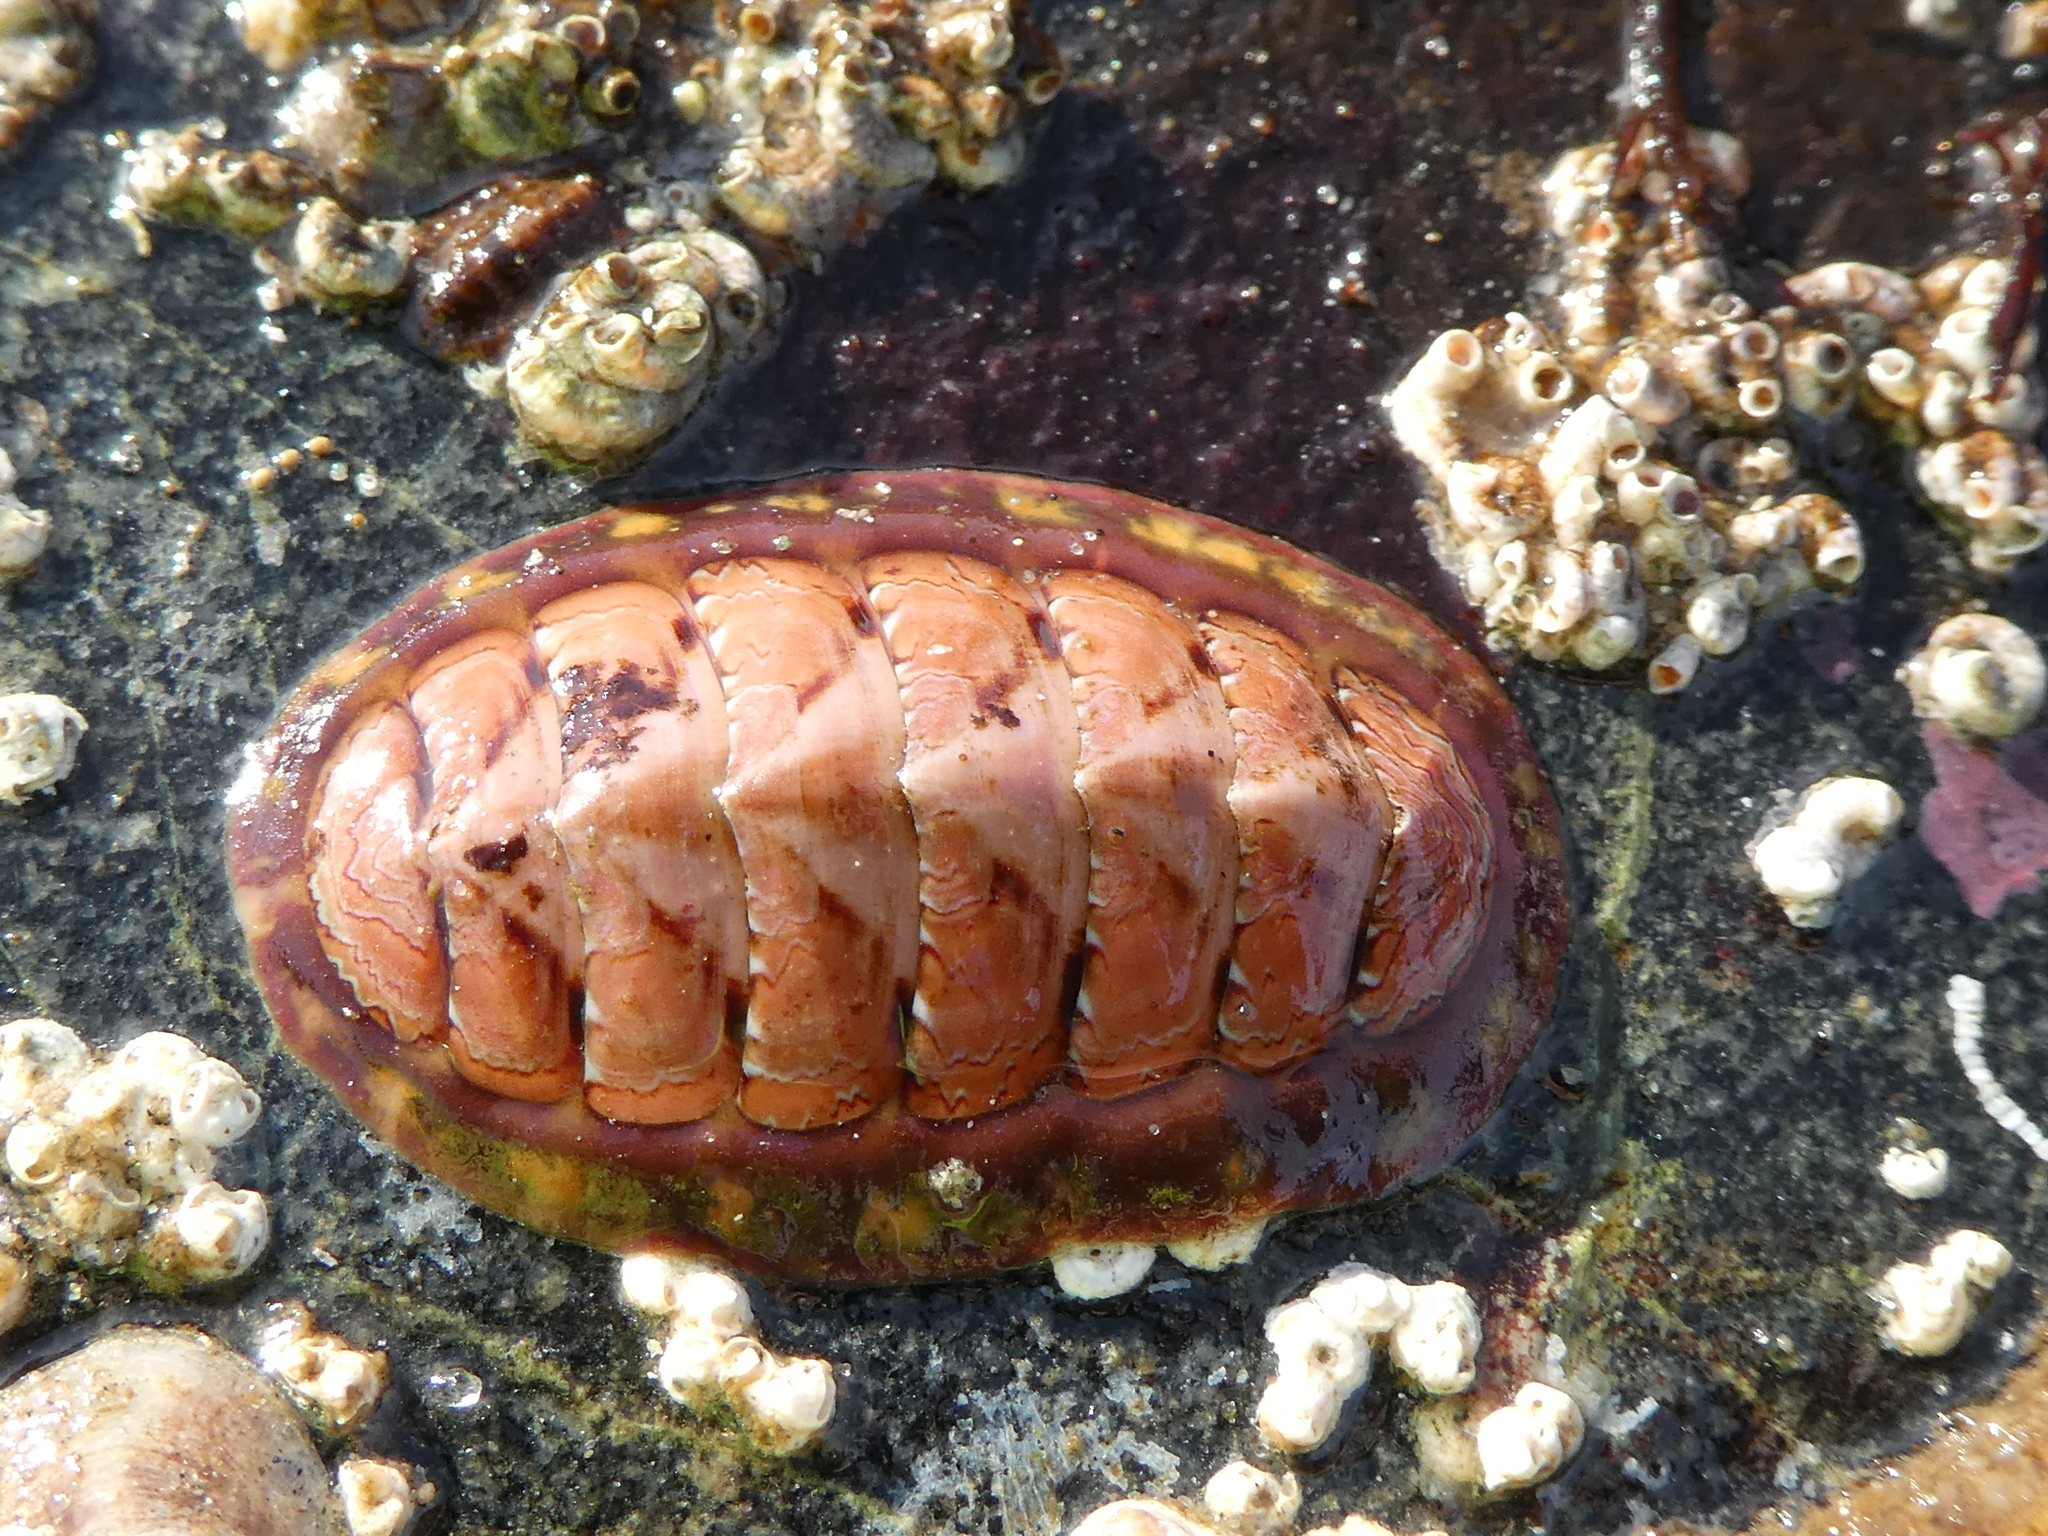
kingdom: Animalia
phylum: Mollusca
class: Polyplacophora
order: Chitonida
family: Tonicellidae
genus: Tonicella
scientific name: Tonicella lineata
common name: Lined chiton
